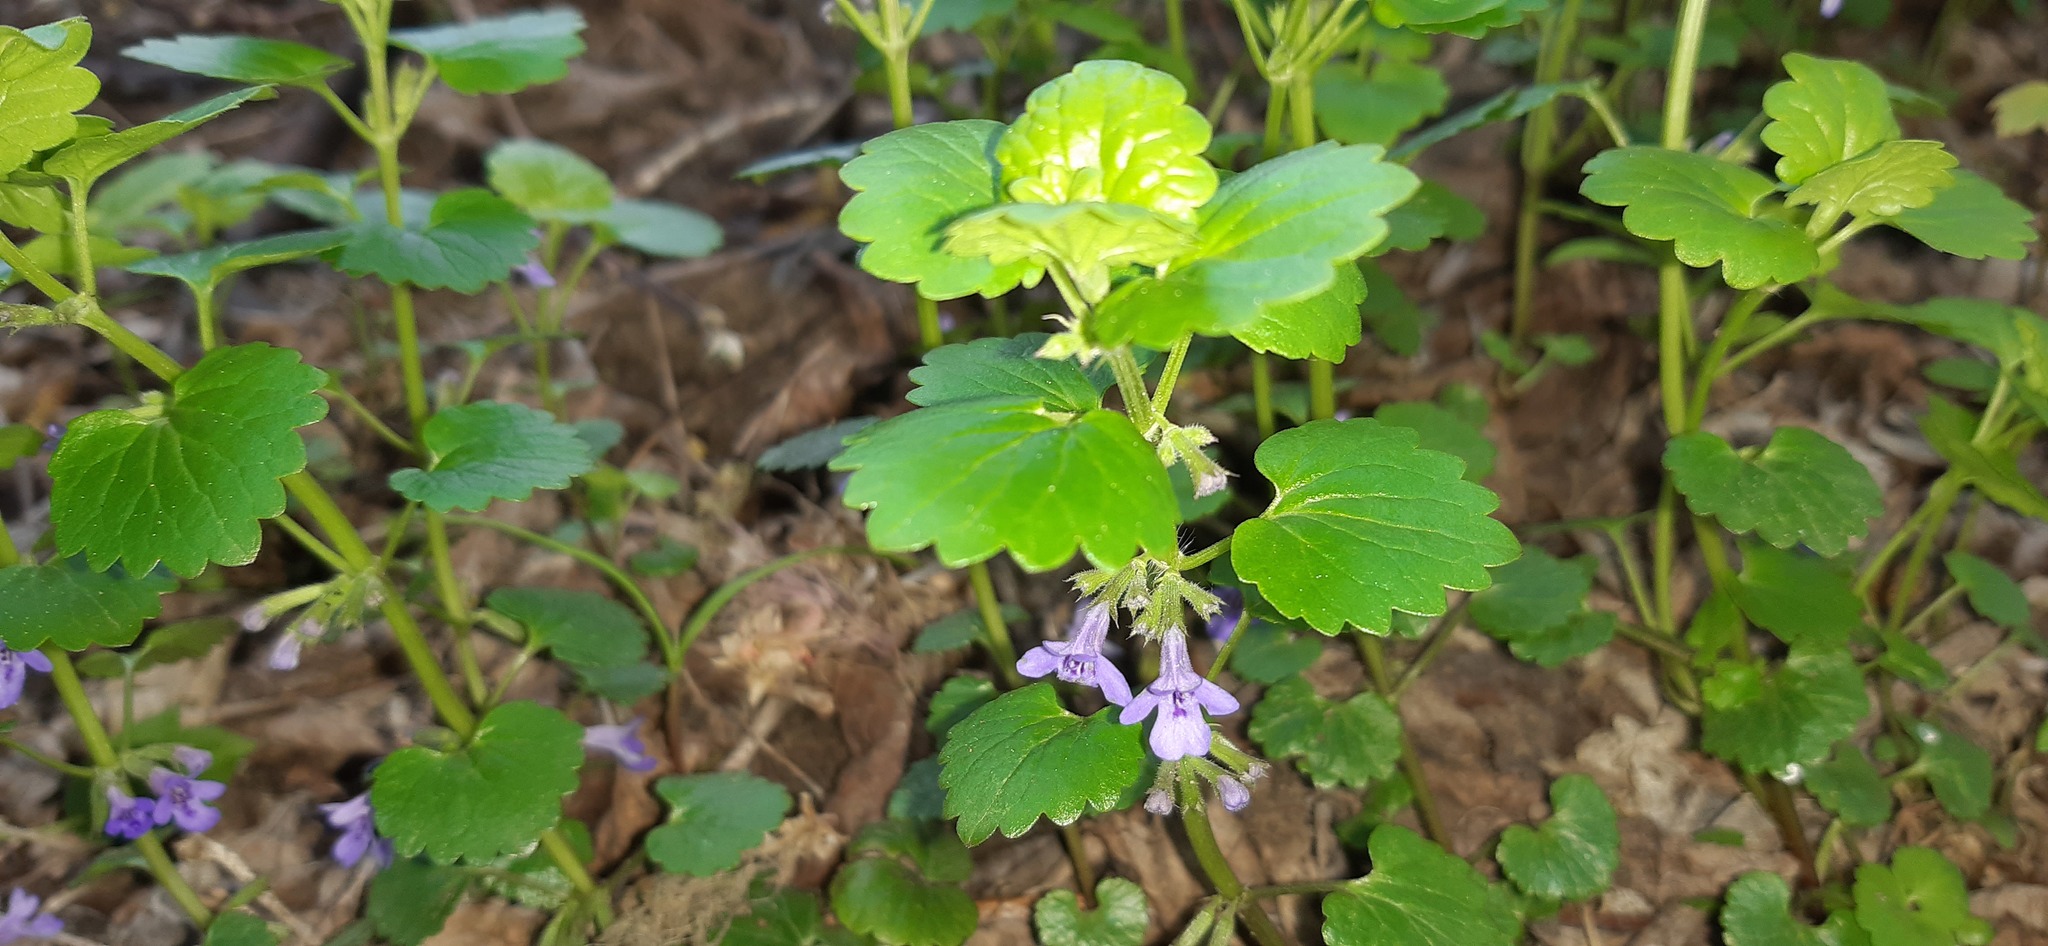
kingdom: Plantae
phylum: Tracheophyta
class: Magnoliopsida
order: Lamiales
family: Lamiaceae
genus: Glechoma
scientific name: Glechoma hederacea
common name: Ground ivy
